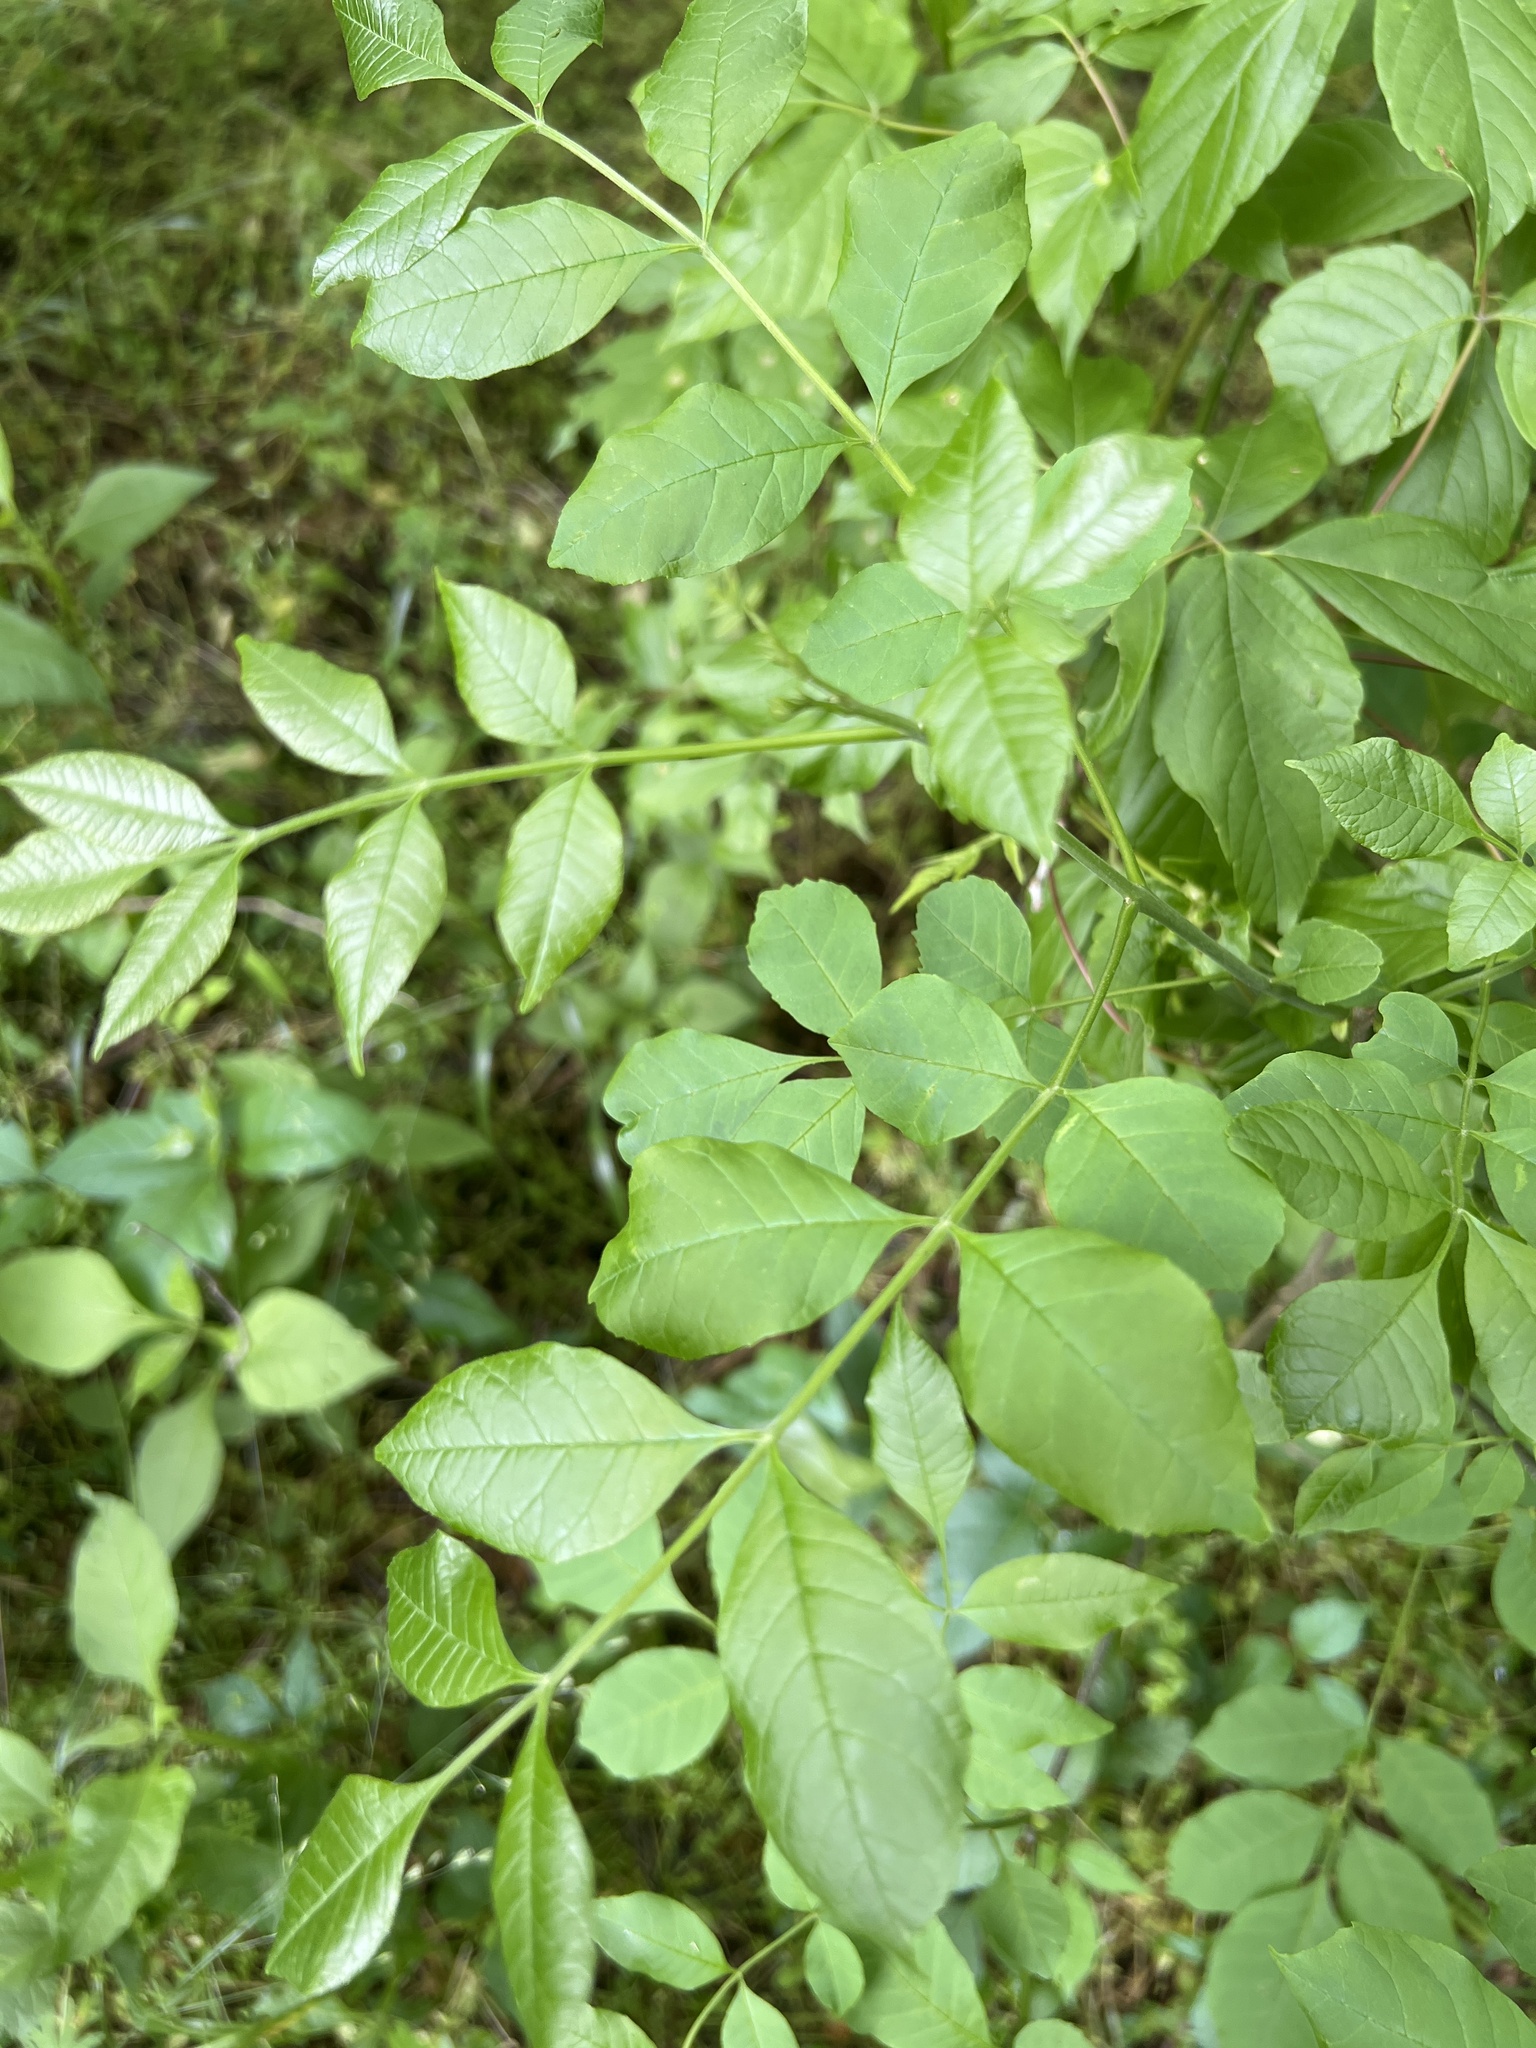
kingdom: Plantae
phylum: Tracheophyta
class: Magnoliopsida
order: Lamiales
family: Oleaceae
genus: Fraxinus
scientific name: Fraxinus pennsylvanica
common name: Green ash
